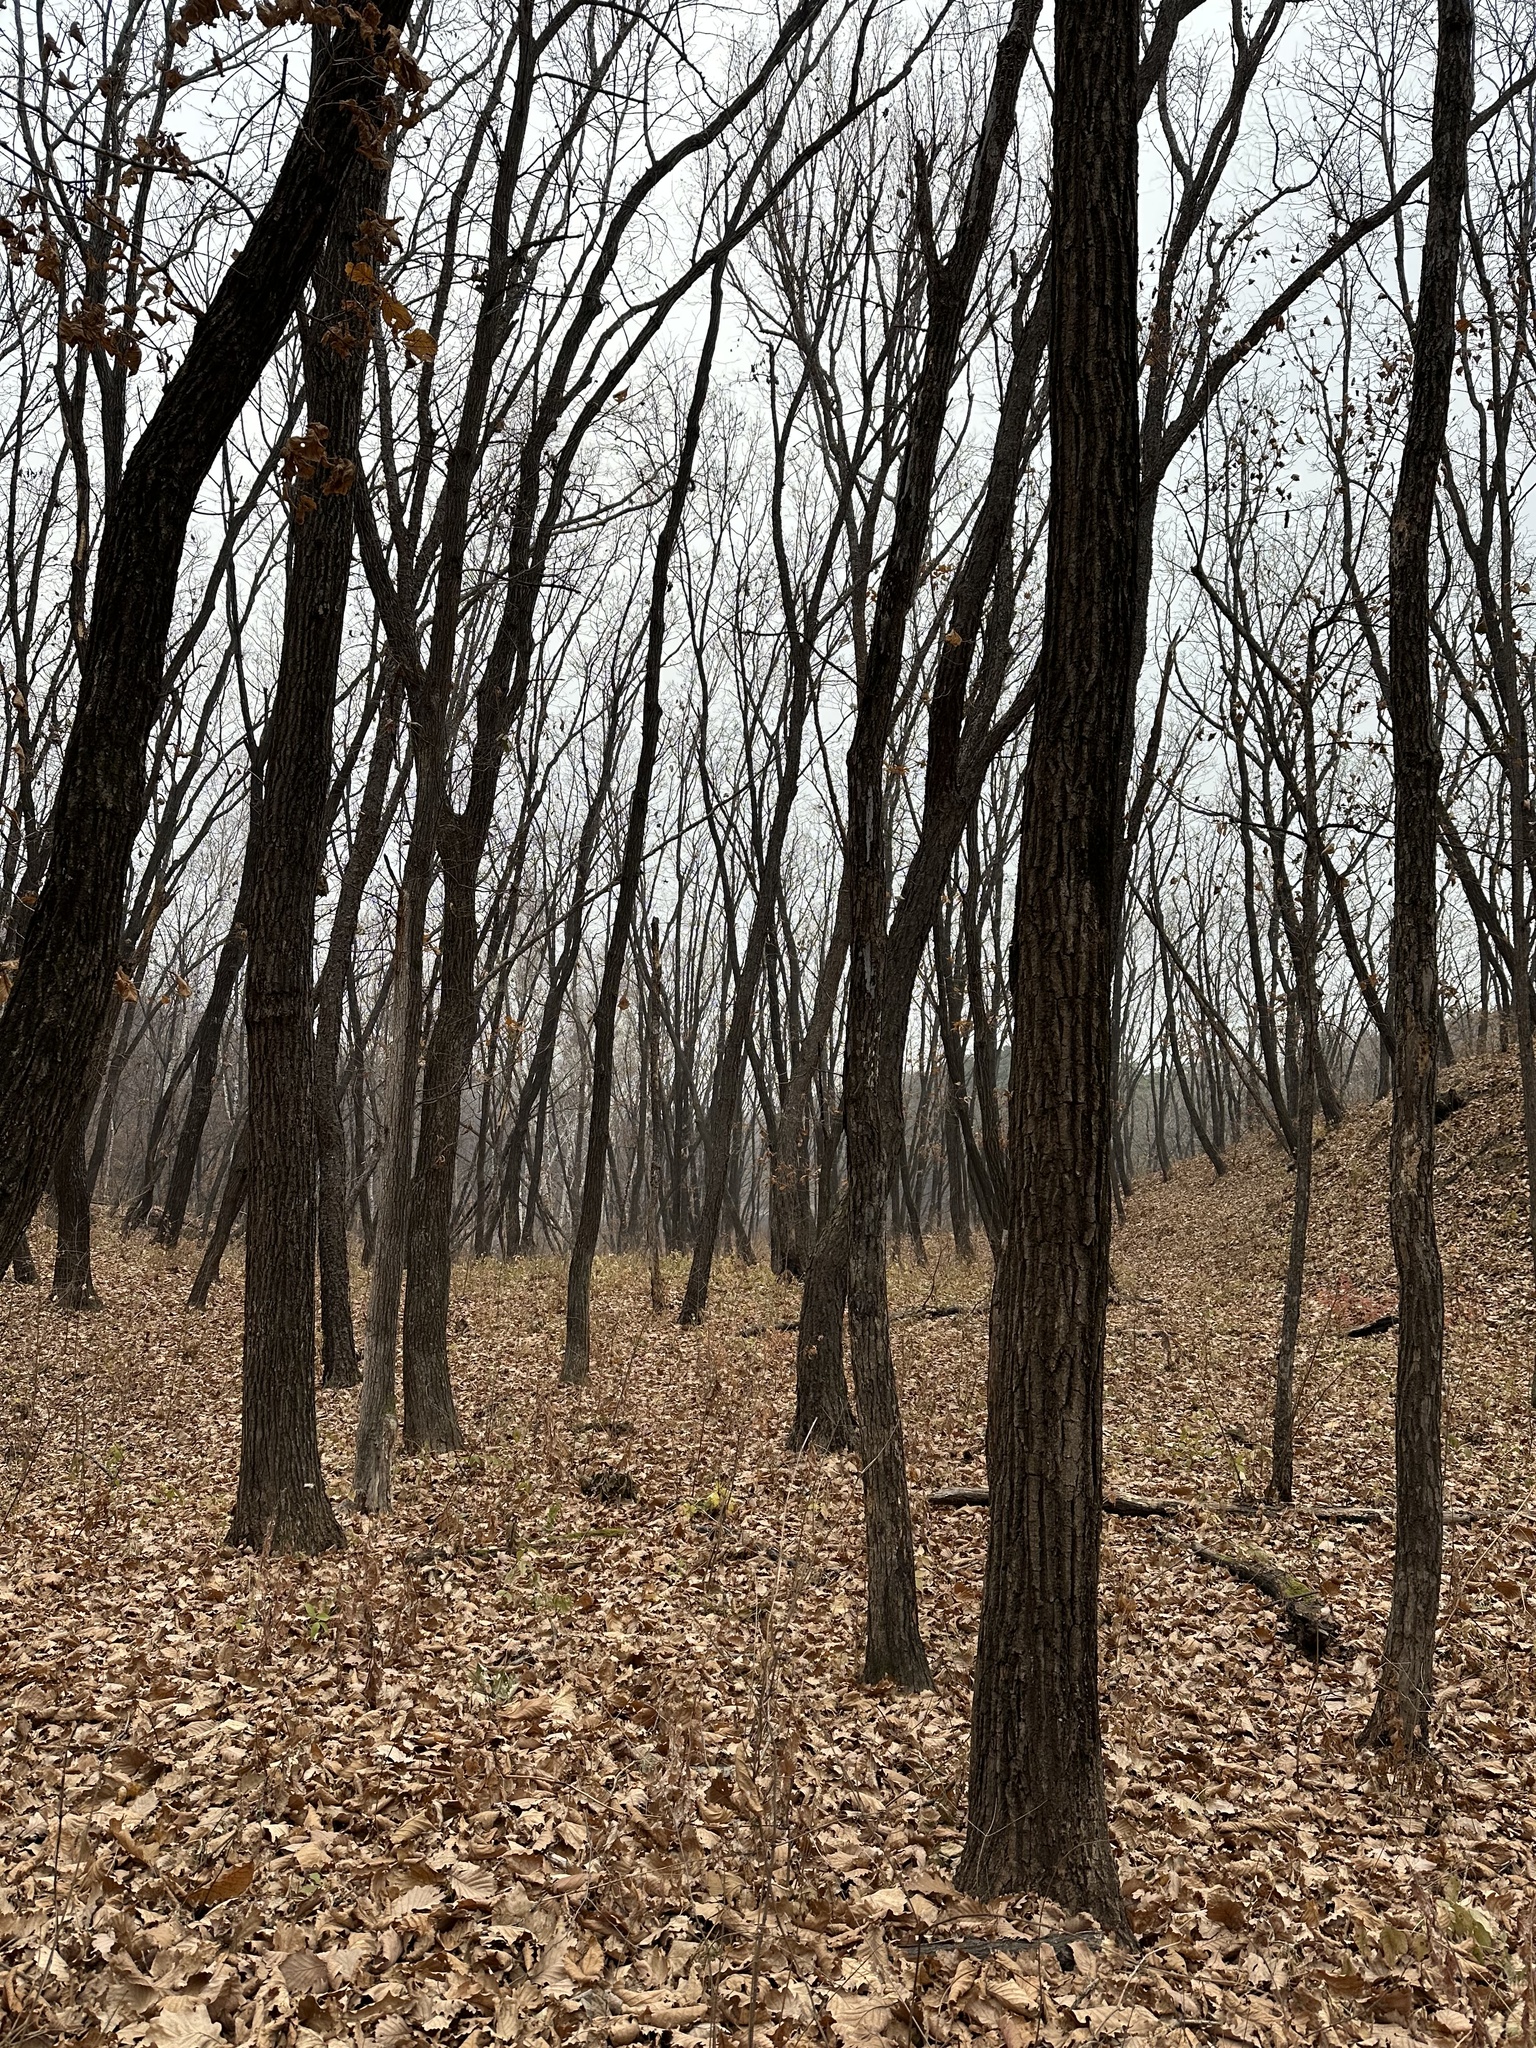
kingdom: Plantae
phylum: Tracheophyta
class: Magnoliopsida
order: Fagales
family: Fagaceae
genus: Quercus
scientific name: Quercus mongolica
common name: Mongolian oak
